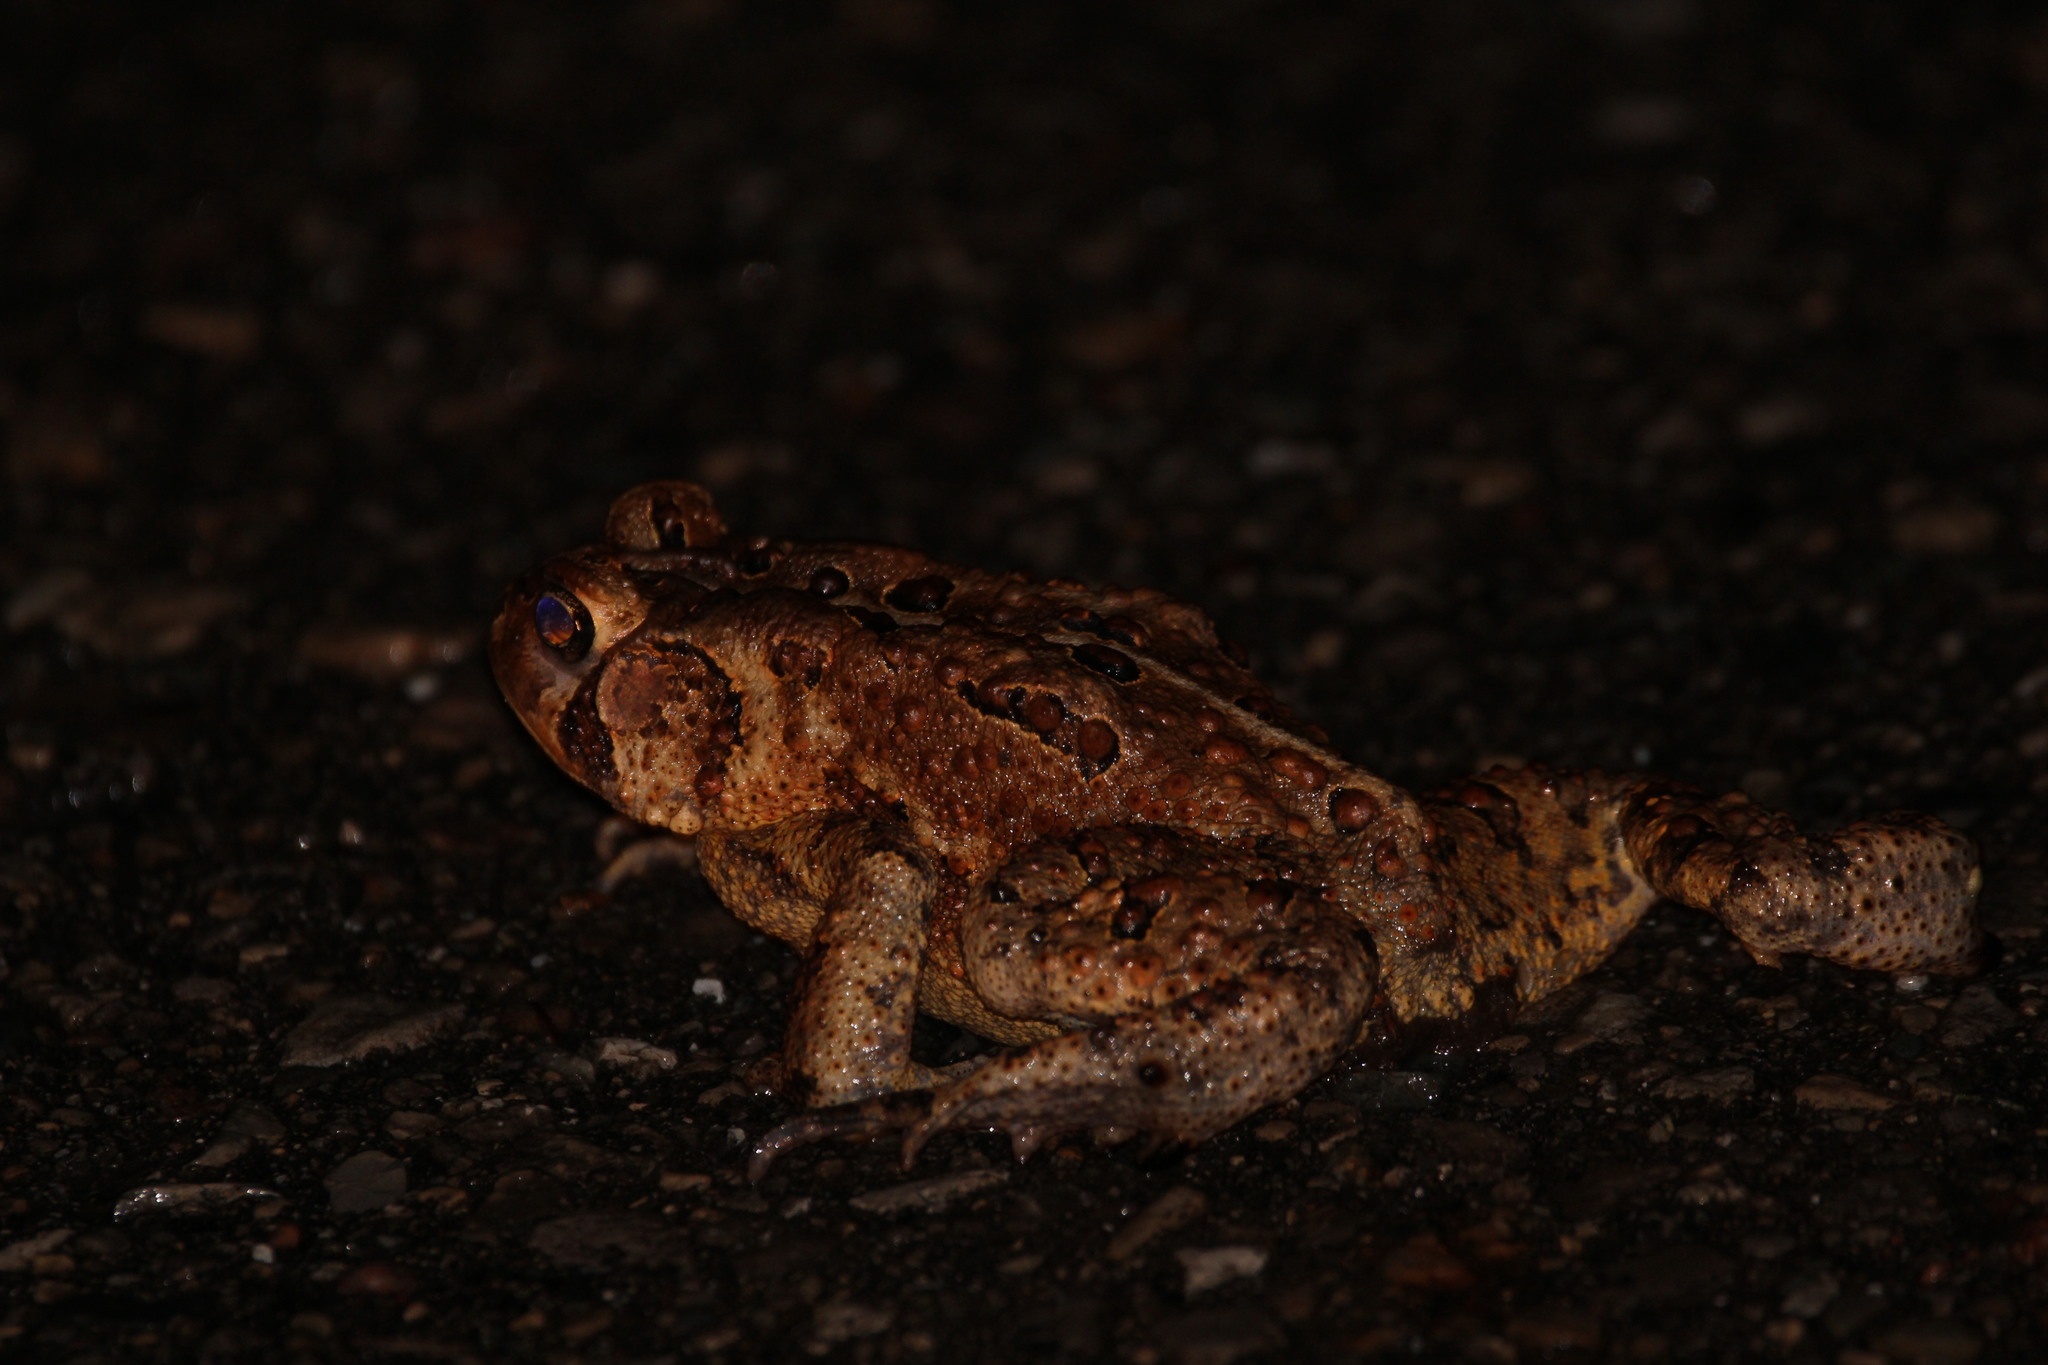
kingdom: Animalia
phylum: Chordata
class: Amphibia
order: Anura
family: Bufonidae
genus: Anaxyrus
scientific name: Anaxyrus americanus
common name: American toad
